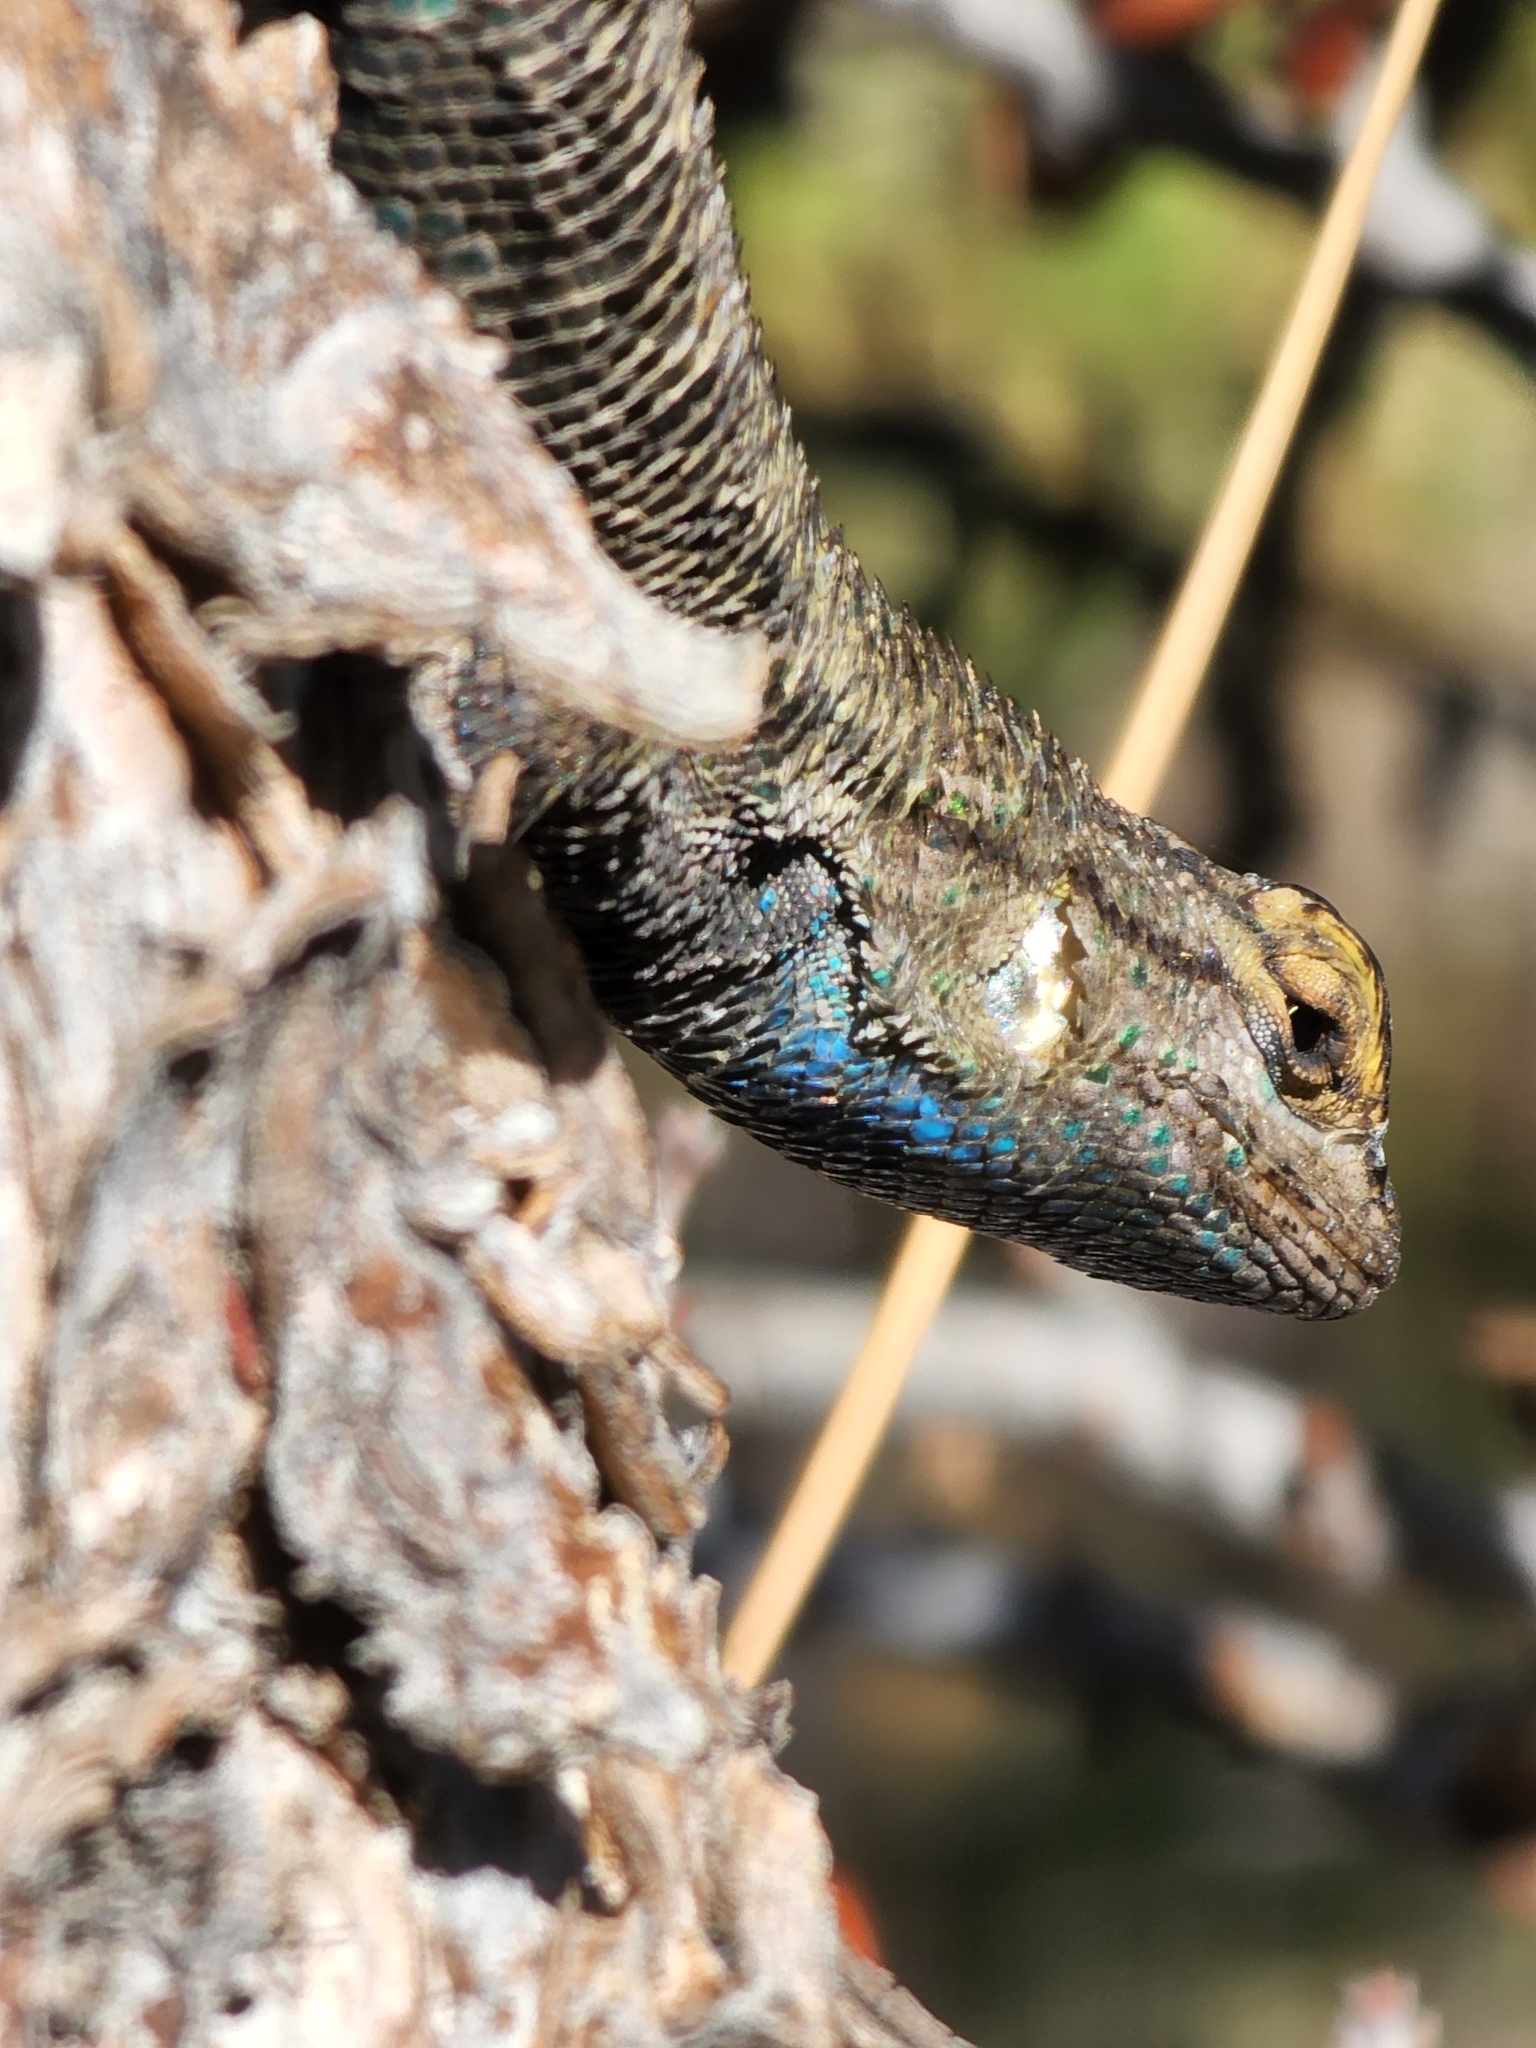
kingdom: Animalia
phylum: Chordata
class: Squamata
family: Phrynosomatidae
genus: Sceloporus
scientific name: Sceloporus occidentalis
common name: Western fence lizard
